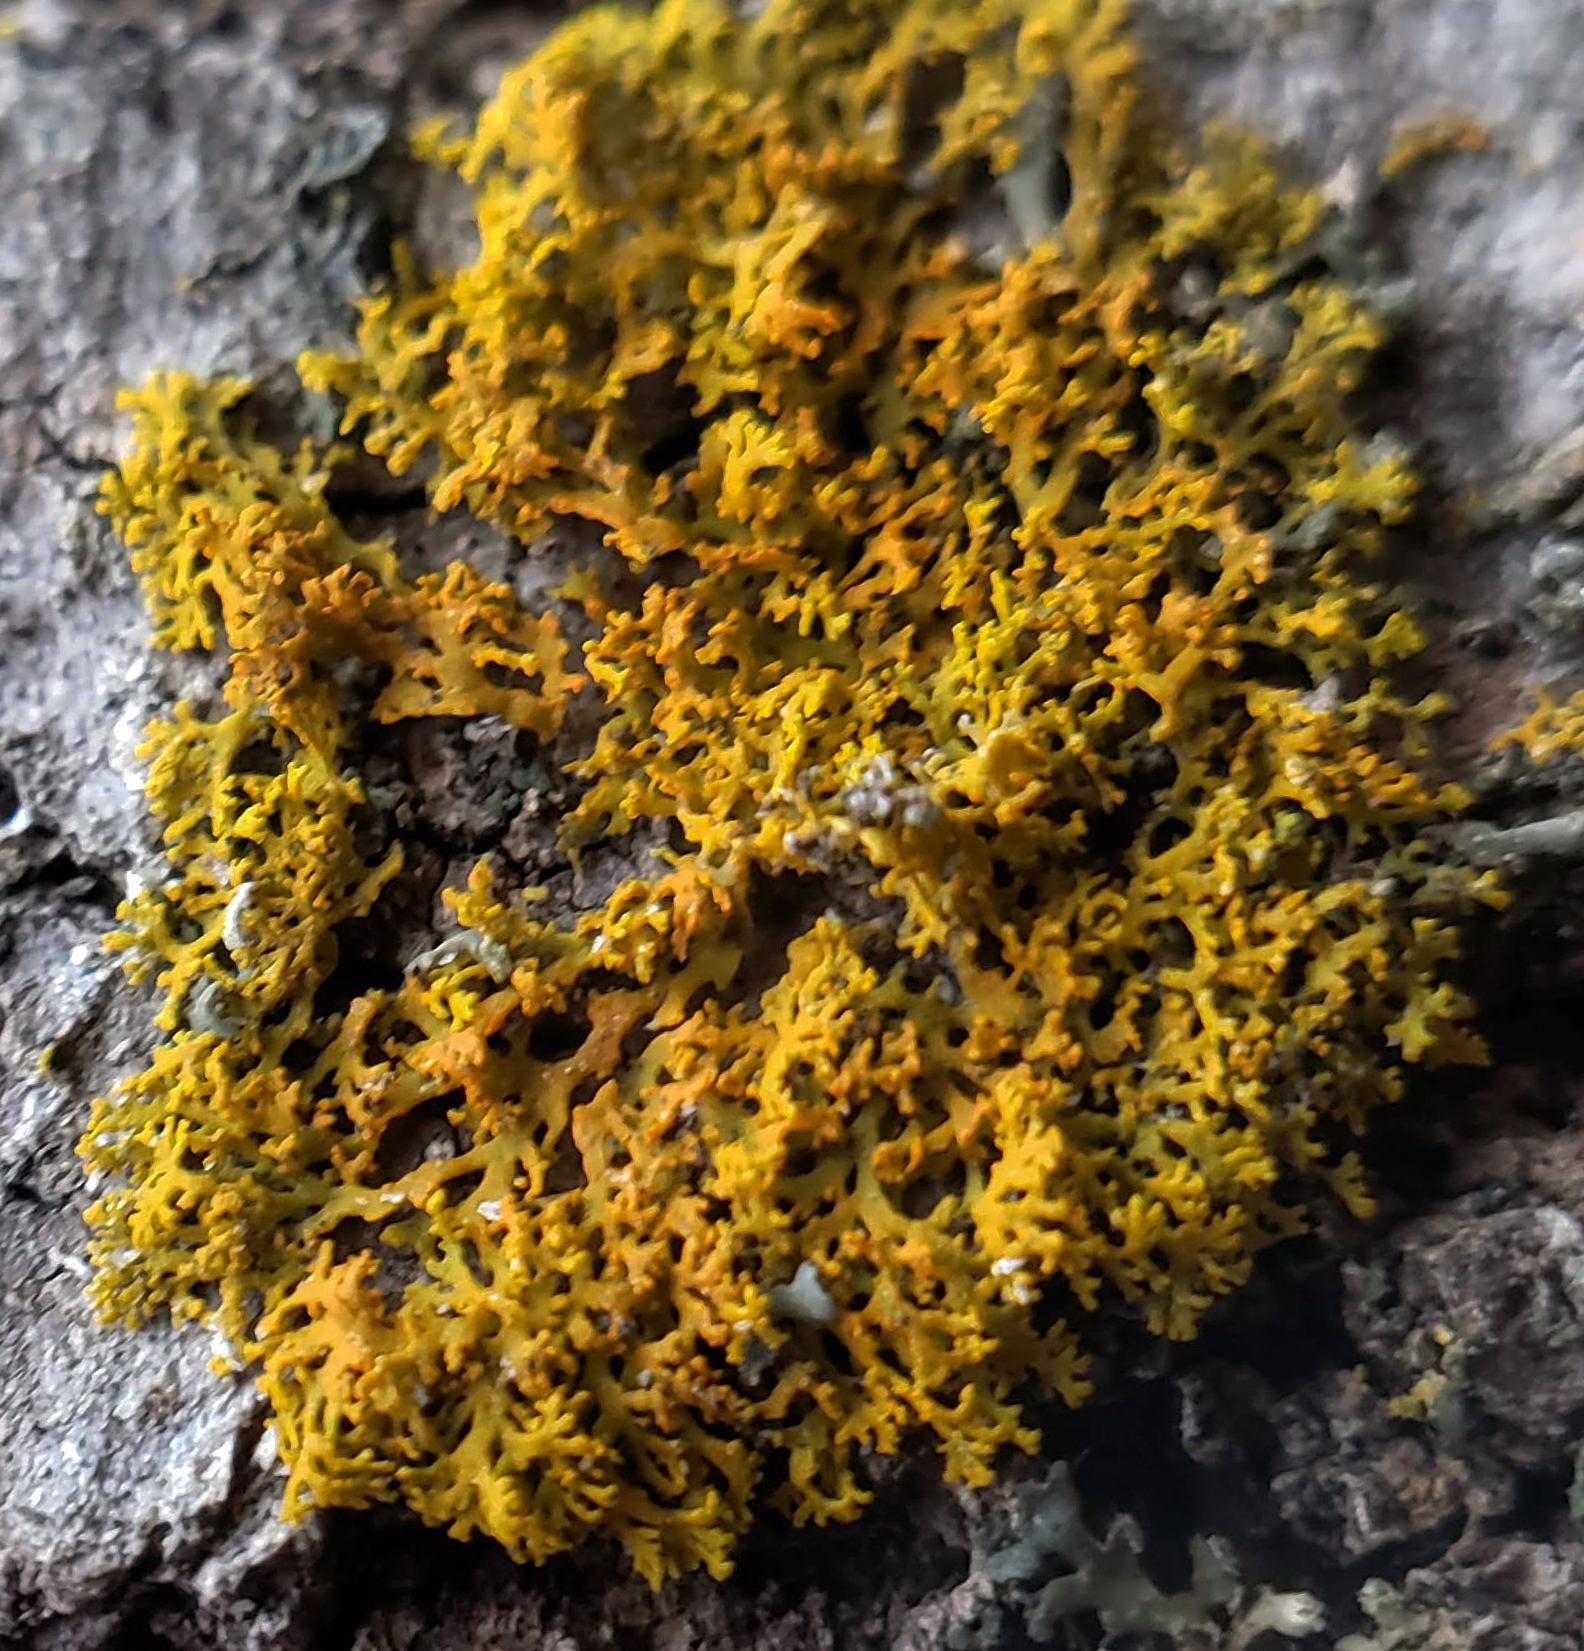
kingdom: Fungi
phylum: Ascomycota
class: Lecanoromycetes
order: Teloschistales
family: Teloschistaceae
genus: Gallowayella
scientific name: Gallowayella weberi
